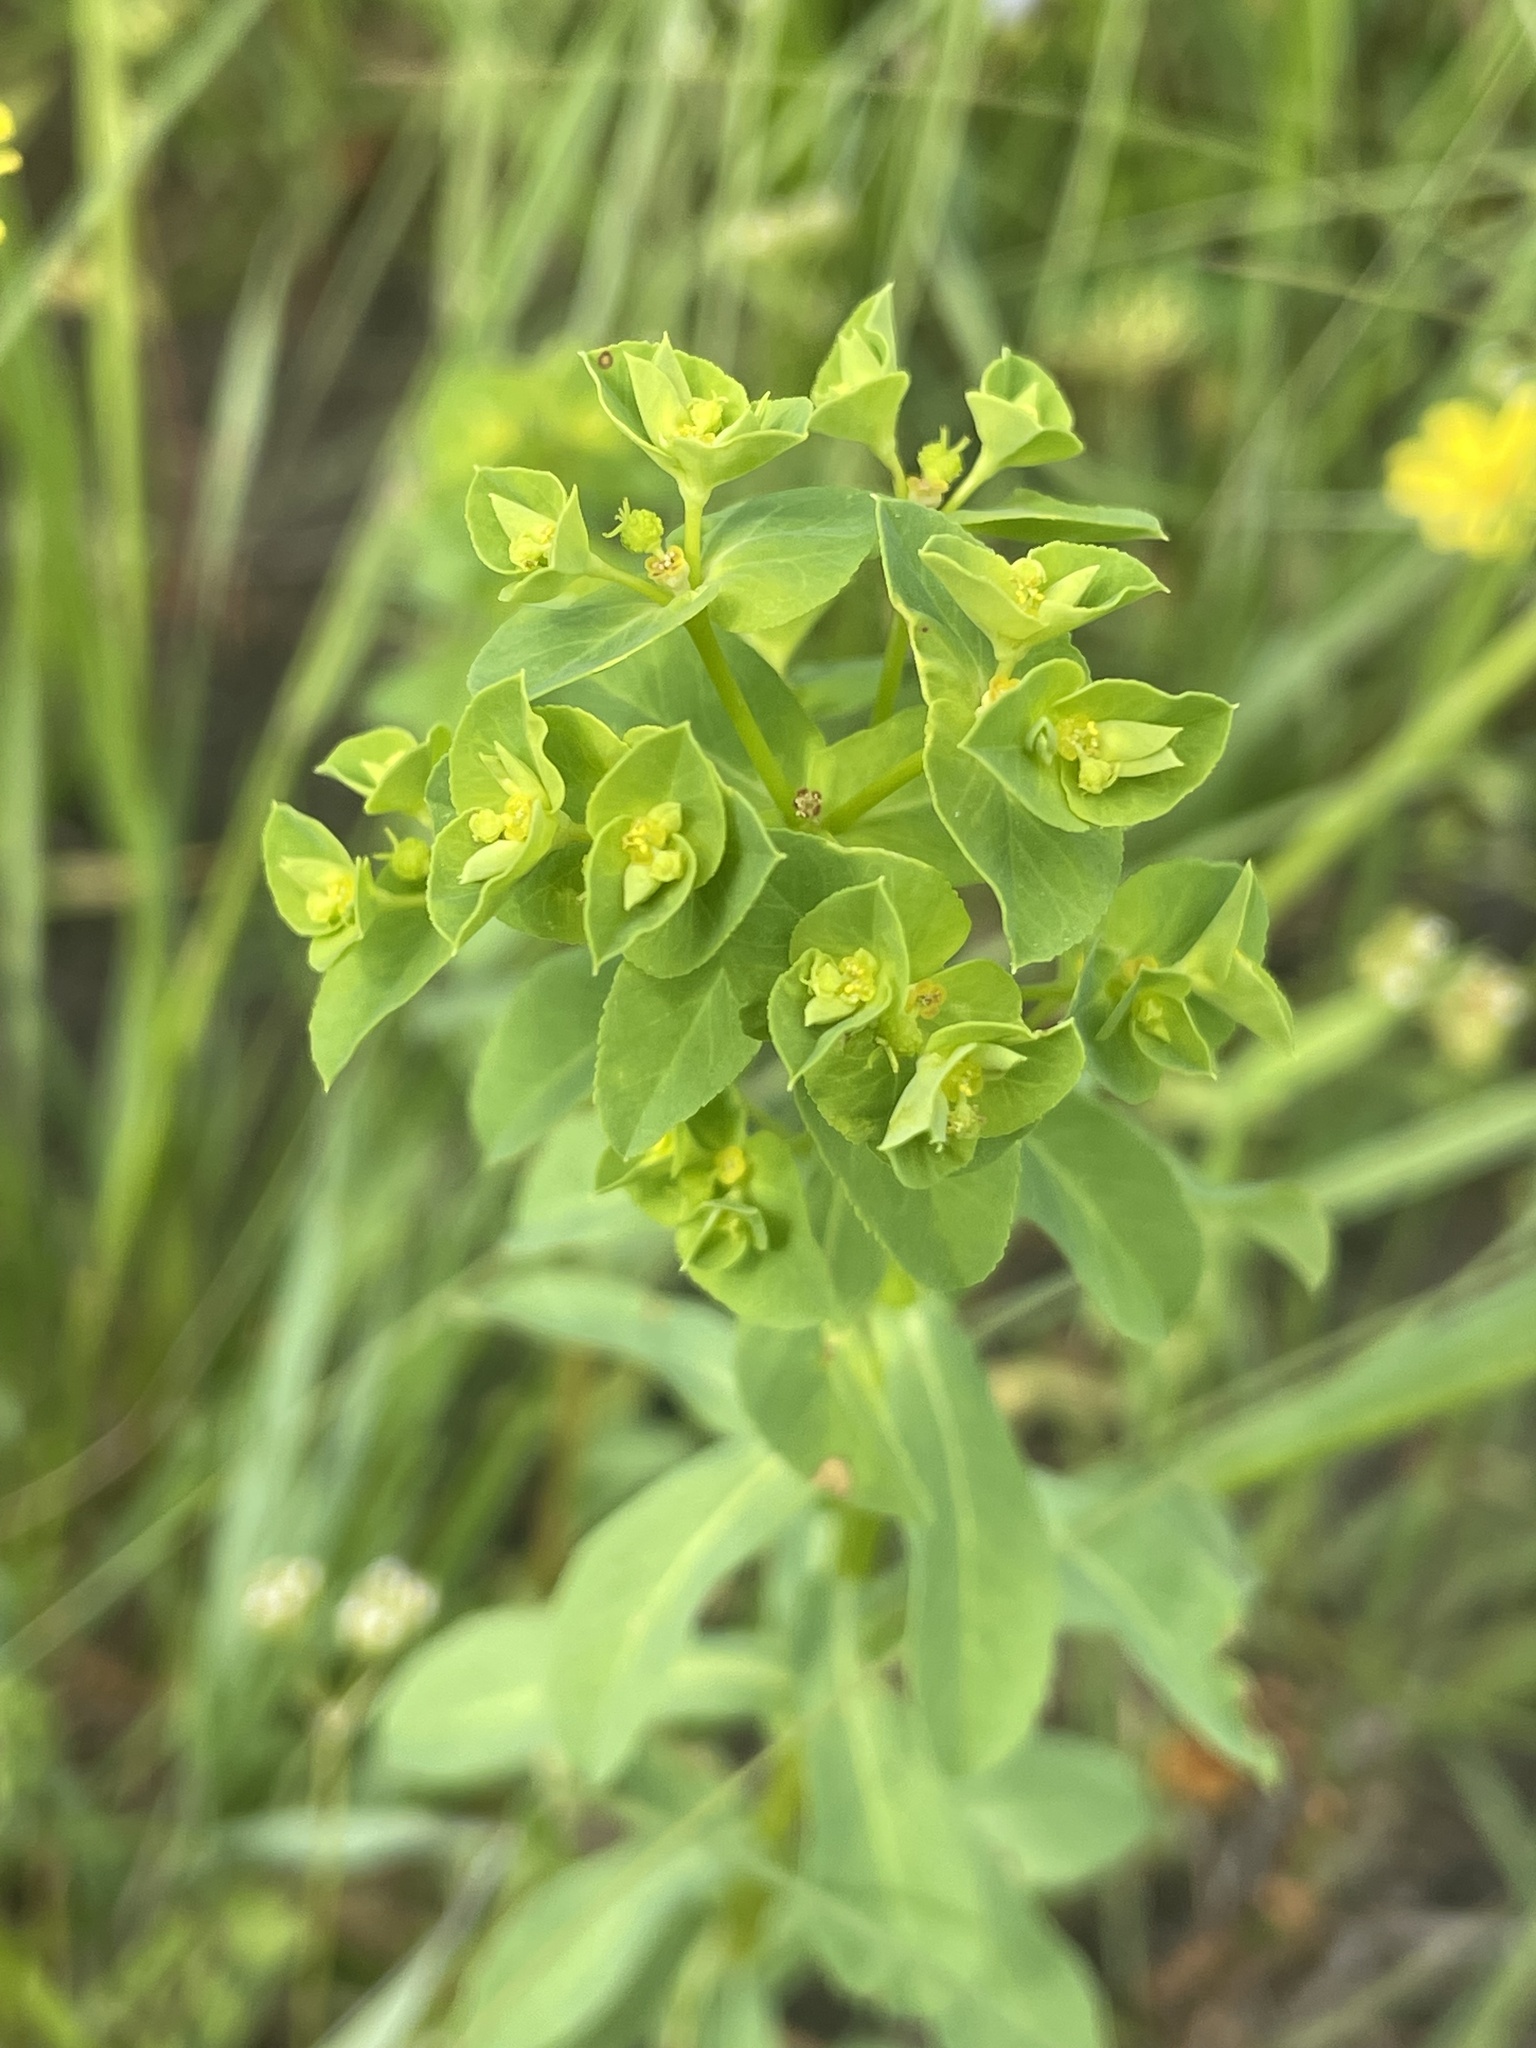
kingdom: Plantae
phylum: Tracheophyta
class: Magnoliopsida
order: Malpighiales
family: Euphorbiaceae
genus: Euphorbia
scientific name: Euphorbia spathulata
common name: Blunt spurge
